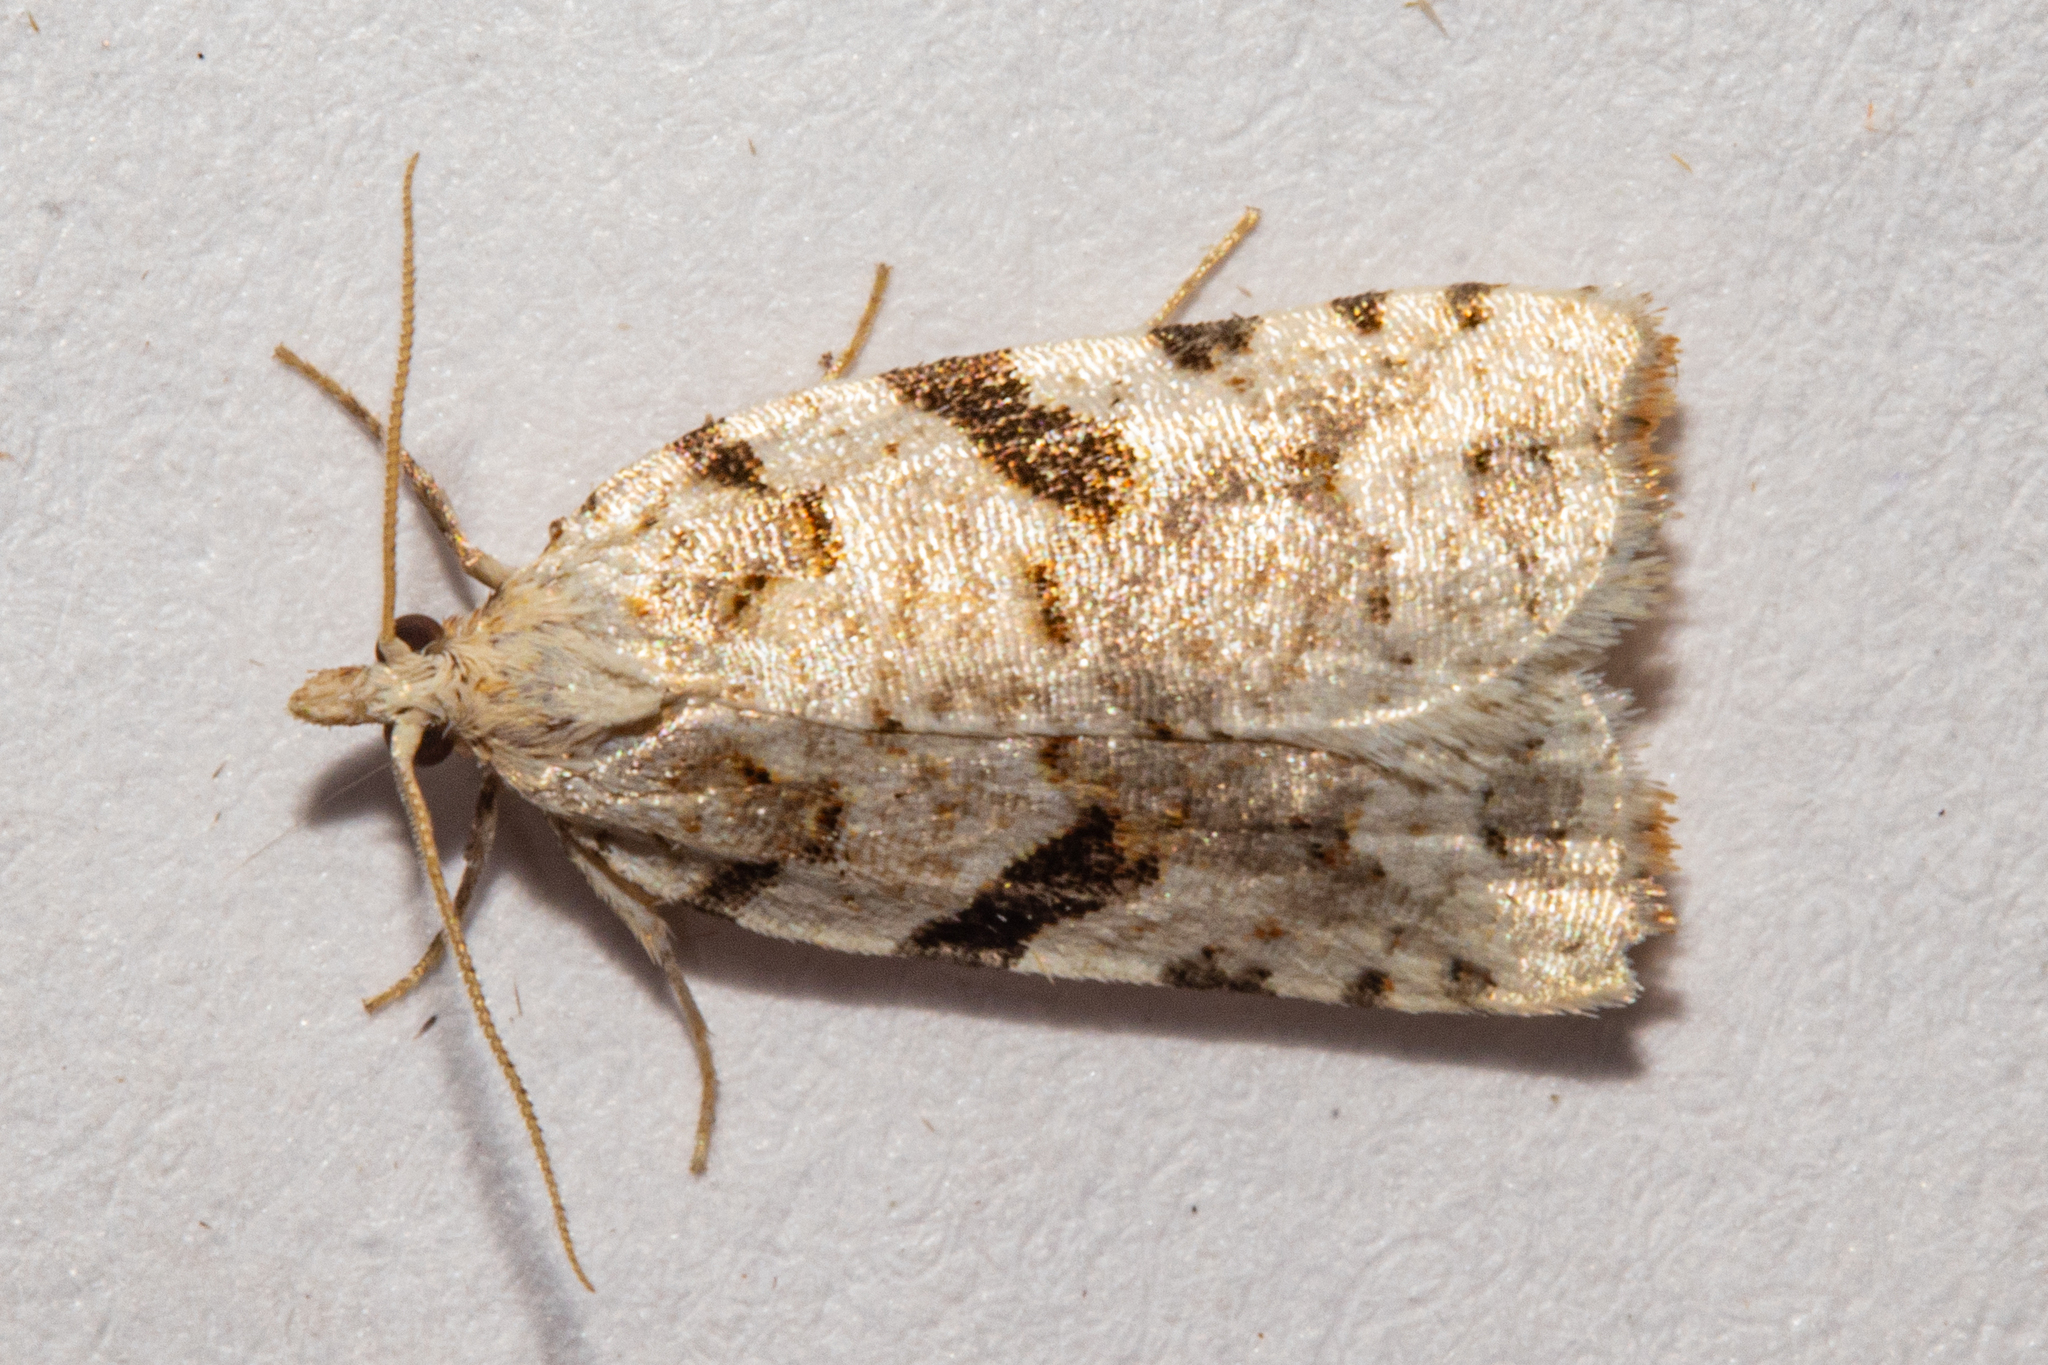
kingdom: Animalia
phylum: Arthropoda
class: Insecta
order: Lepidoptera
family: Tortricidae
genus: Leucotenes
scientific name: Leucotenes coprosmae
